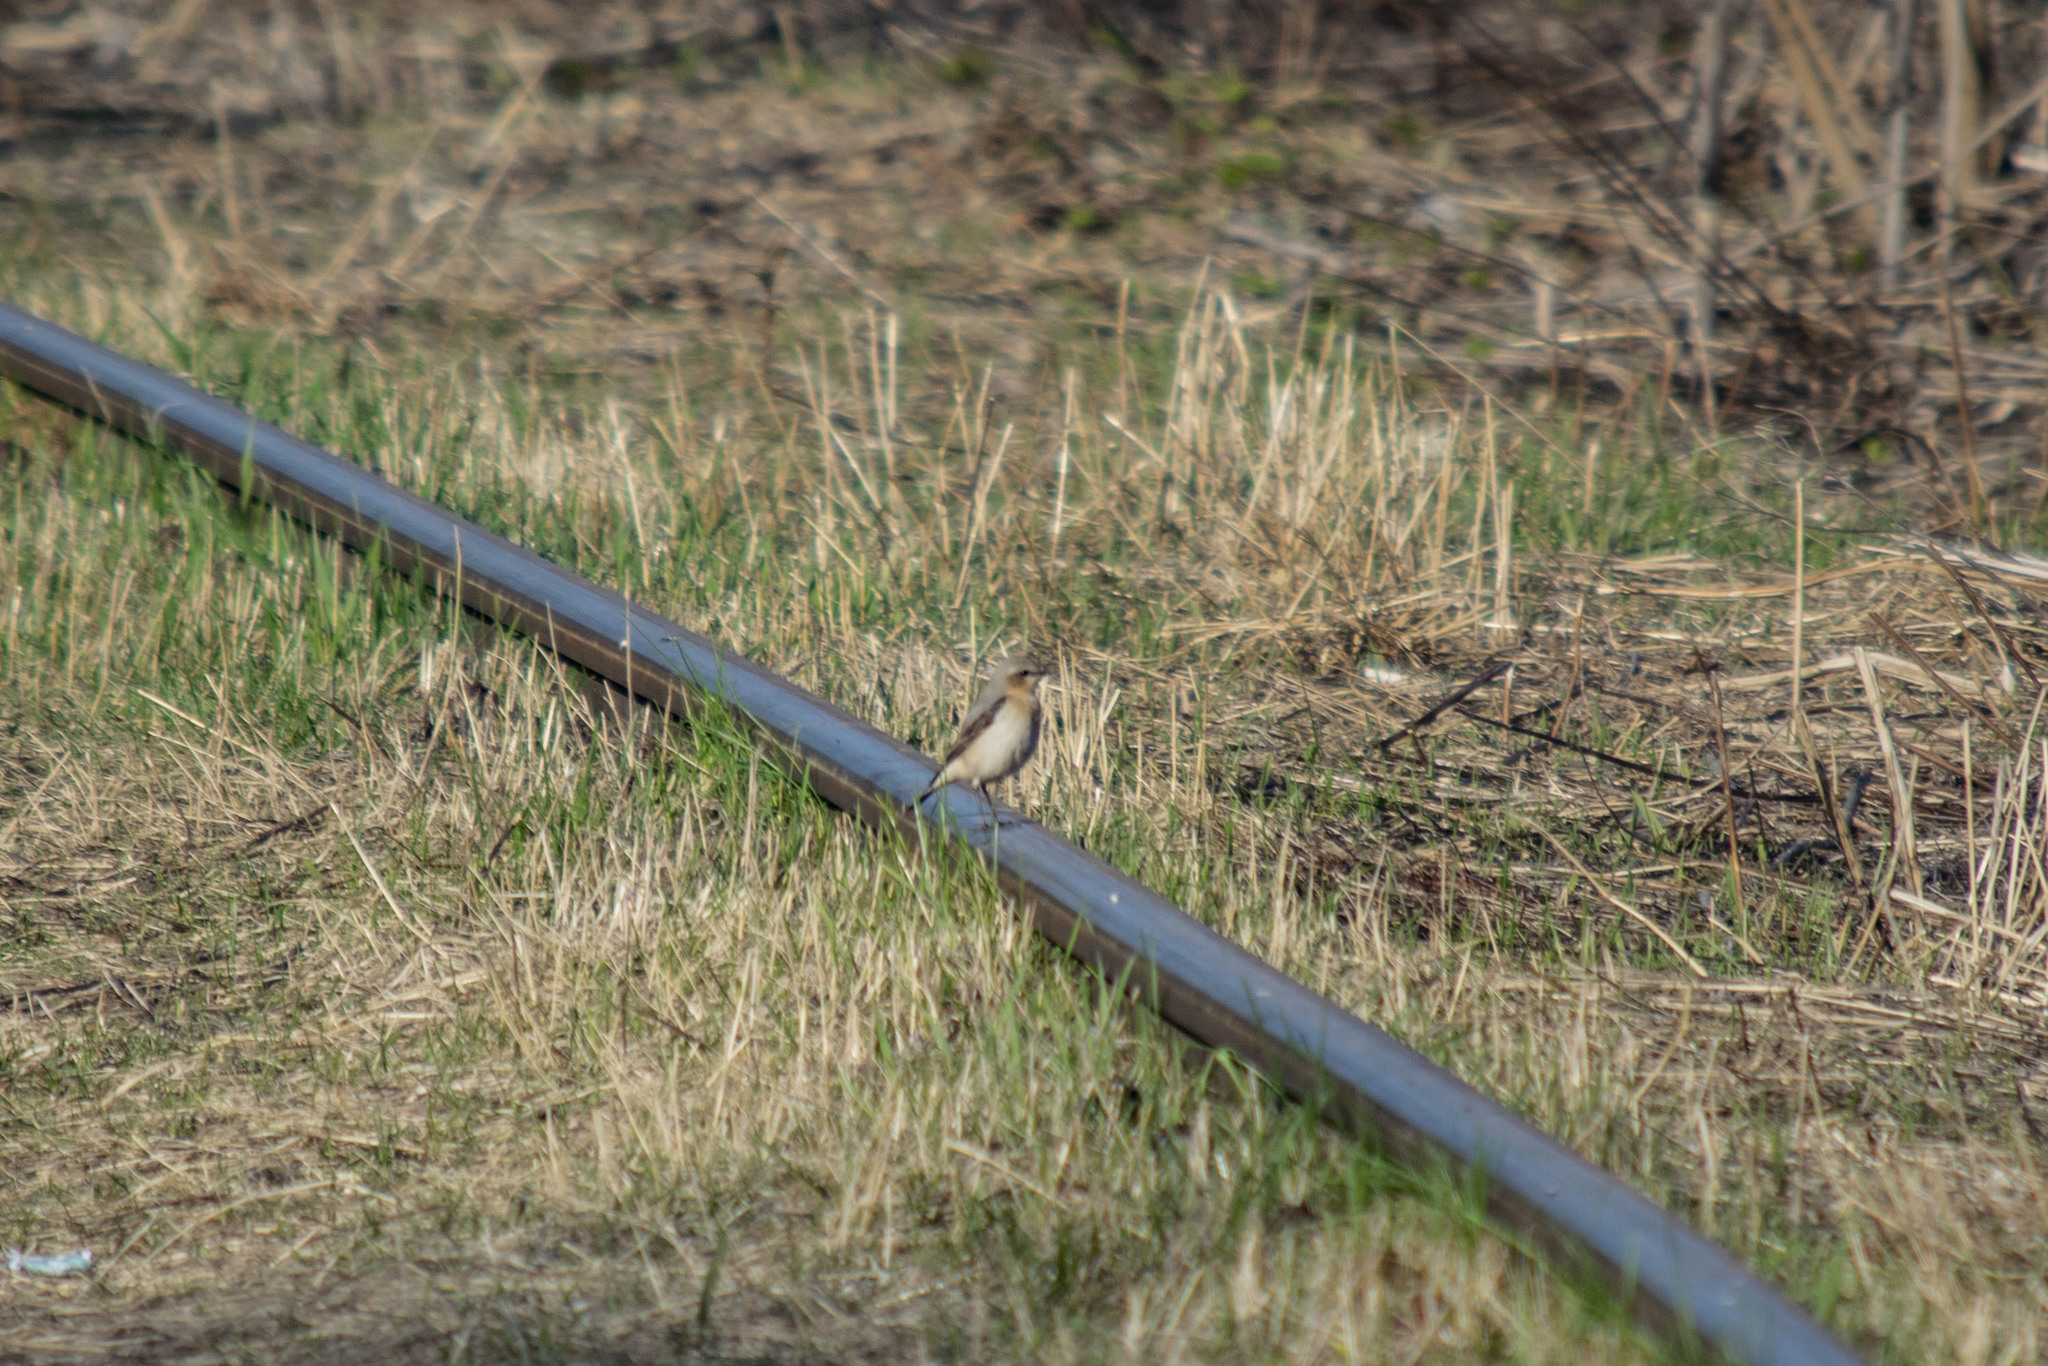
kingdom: Animalia
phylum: Chordata
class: Aves
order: Passeriformes
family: Muscicapidae
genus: Oenanthe
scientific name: Oenanthe oenanthe
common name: Northern wheatear
